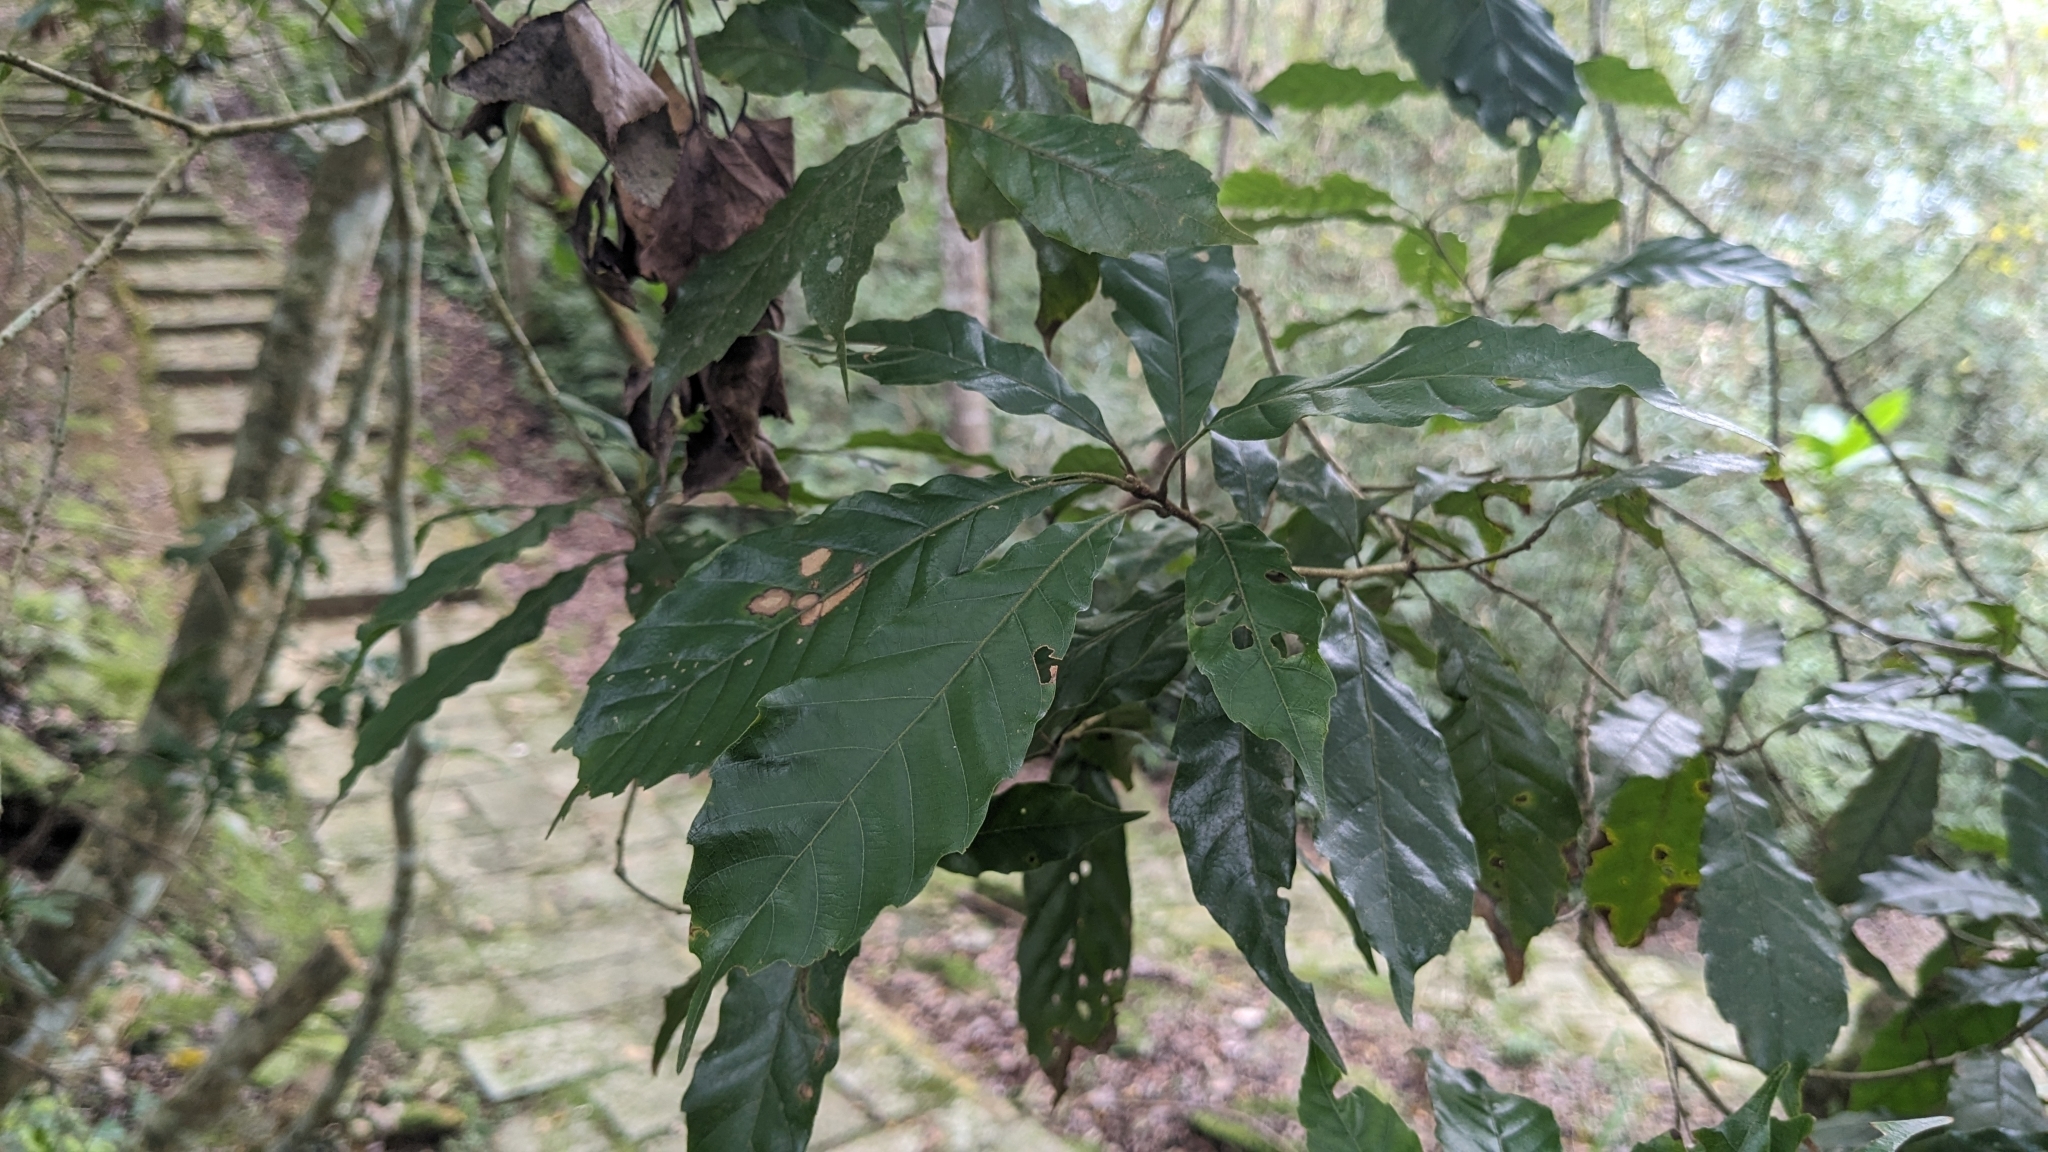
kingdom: Plantae
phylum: Tracheophyta
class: Magnoliopsida
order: Fagales
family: Fagaceae
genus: Lithocarpus
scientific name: Lithocarpus corneus
